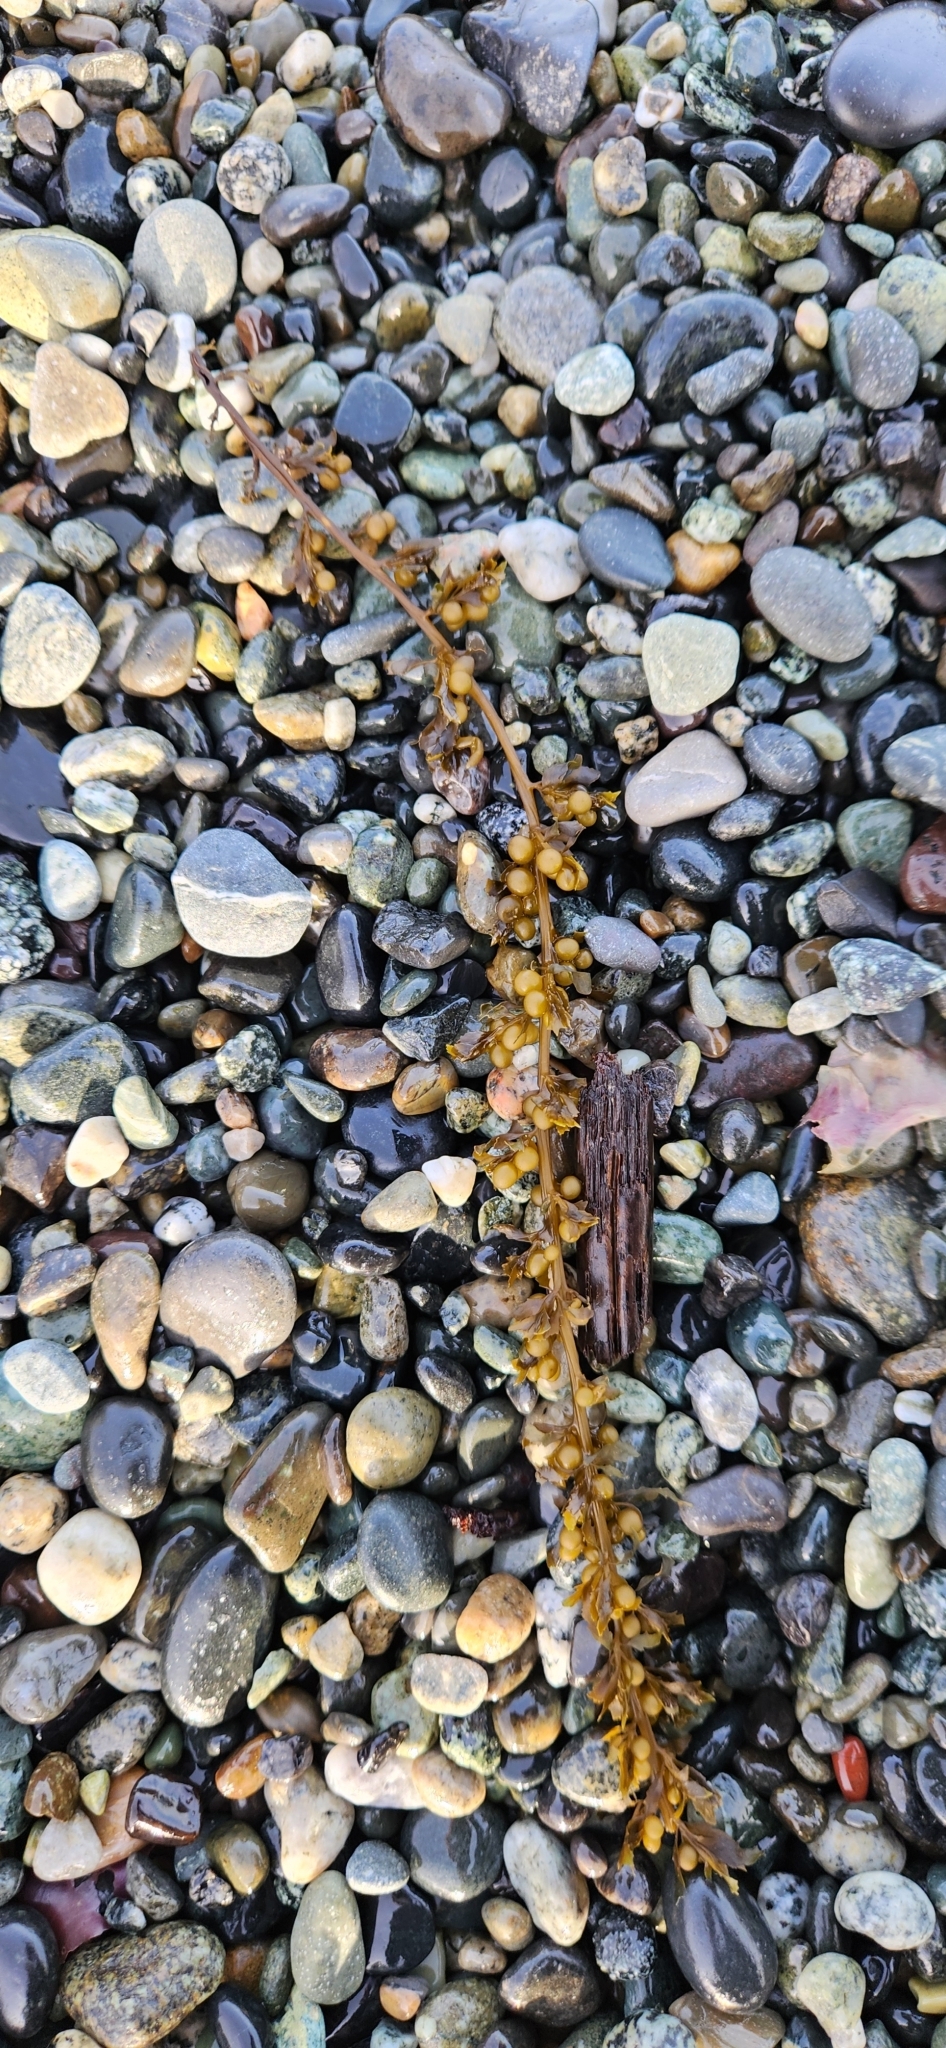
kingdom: Chromista
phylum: Ochrophyta
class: Phaeophyceae
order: Fucales
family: Sargassaceae
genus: Sargassum
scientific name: Sargassum muticum
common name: Japweed
